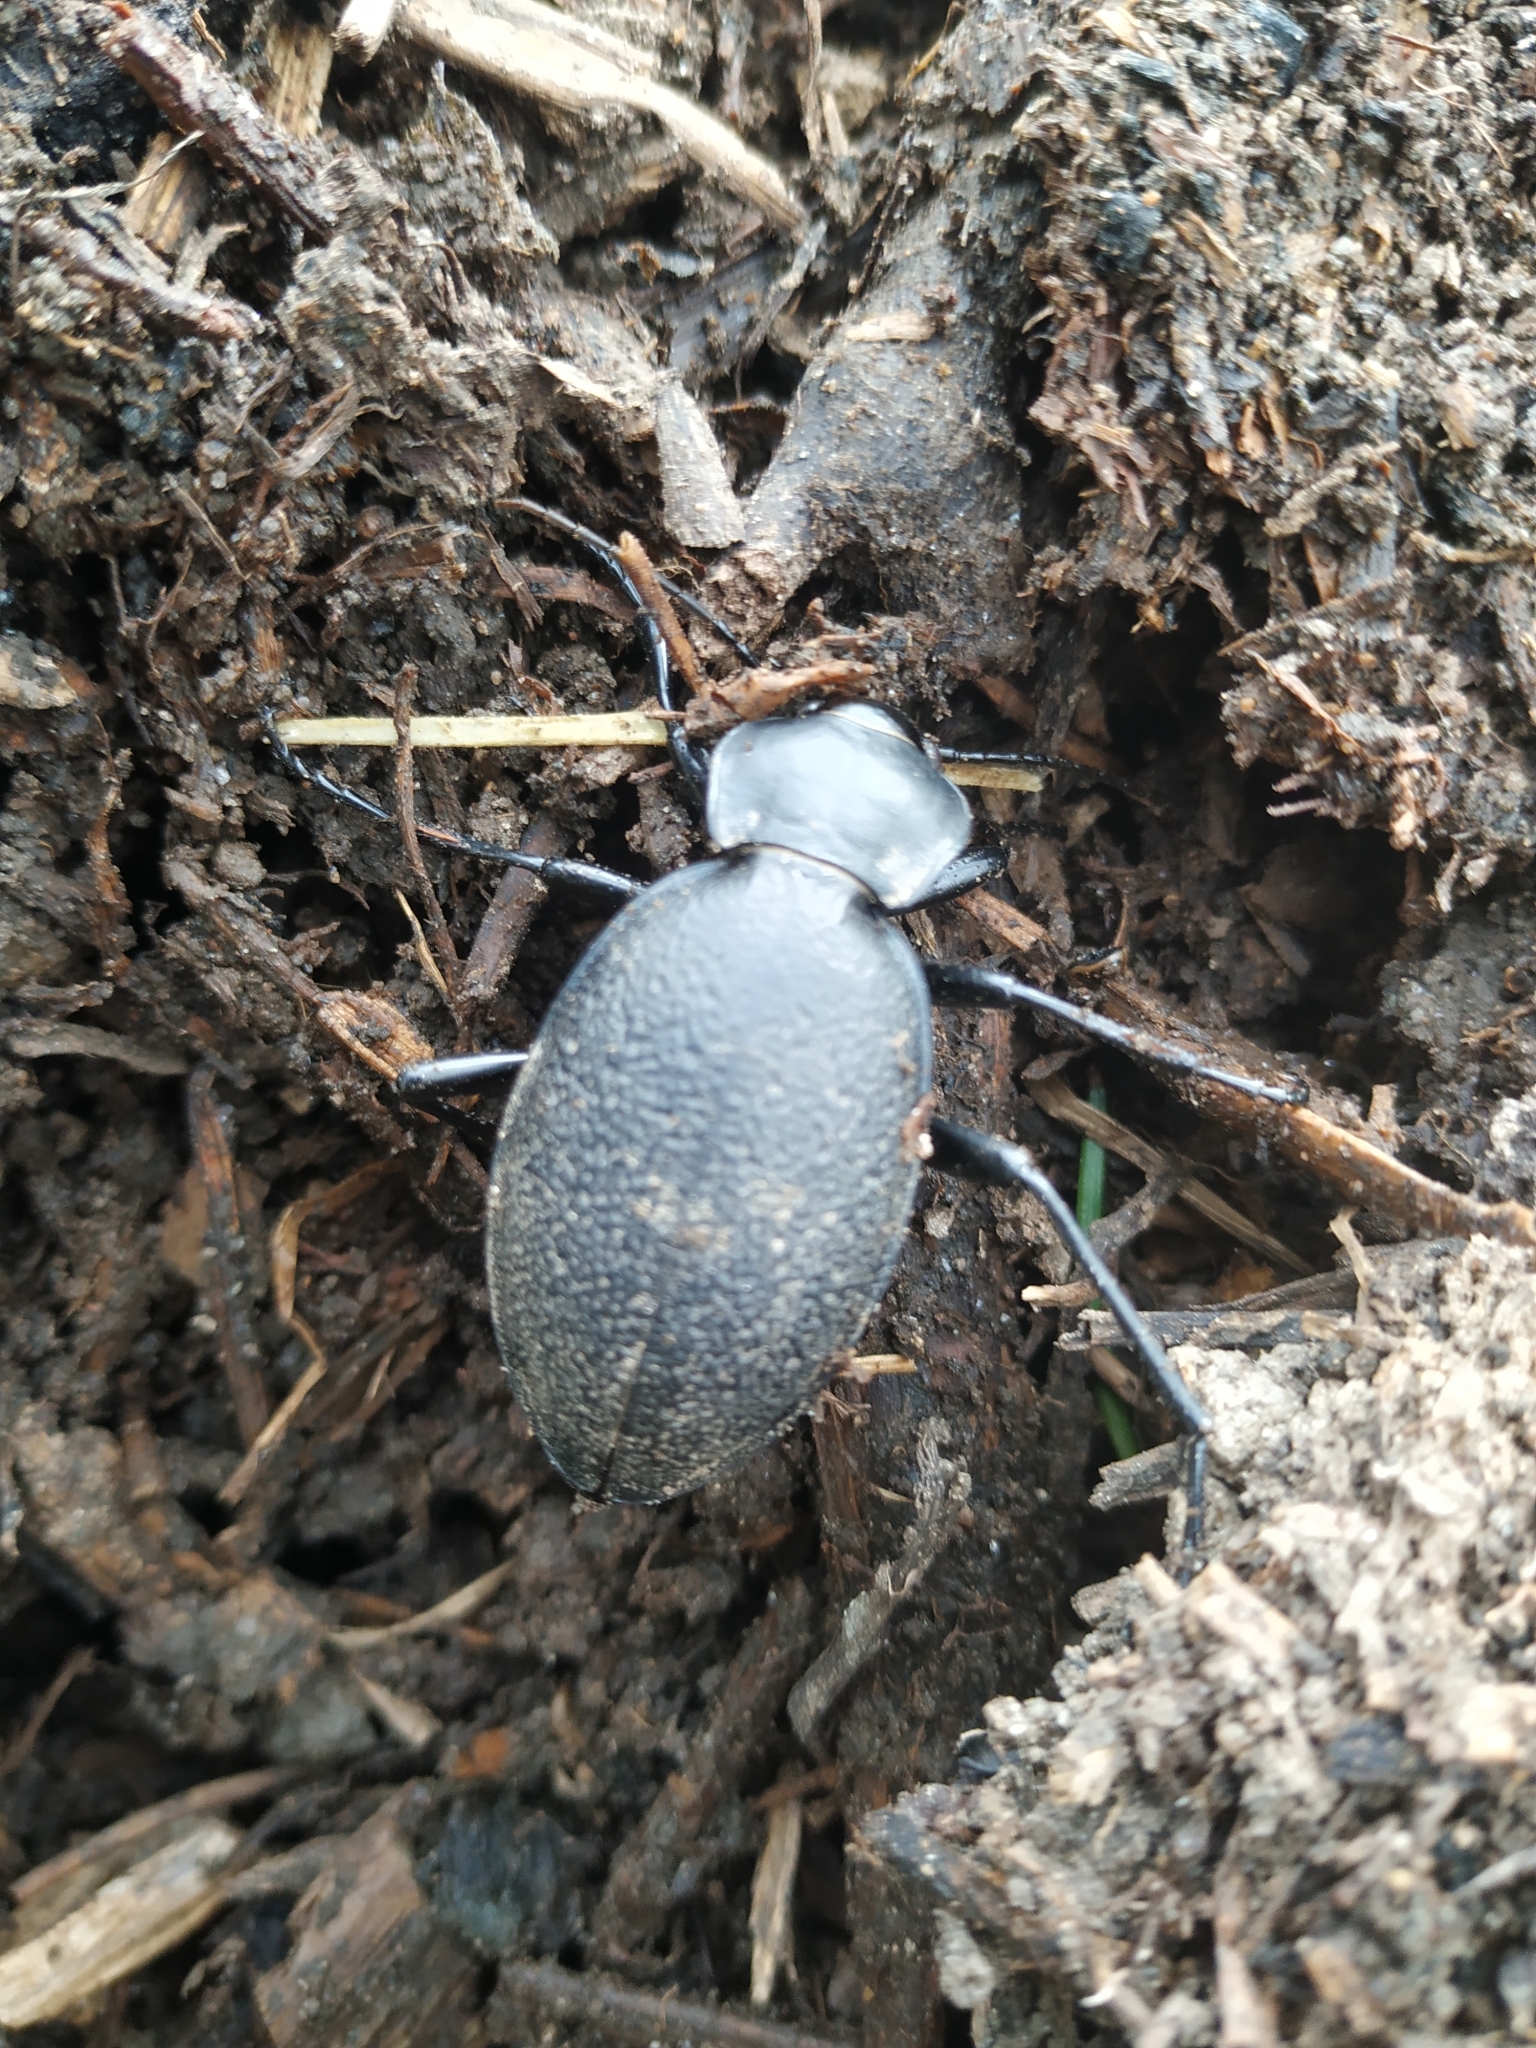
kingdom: Animalia
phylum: Arthropoda
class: Insecta
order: Coleoptera
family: Carabidae
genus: Carabus
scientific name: Carabus coriaceus
